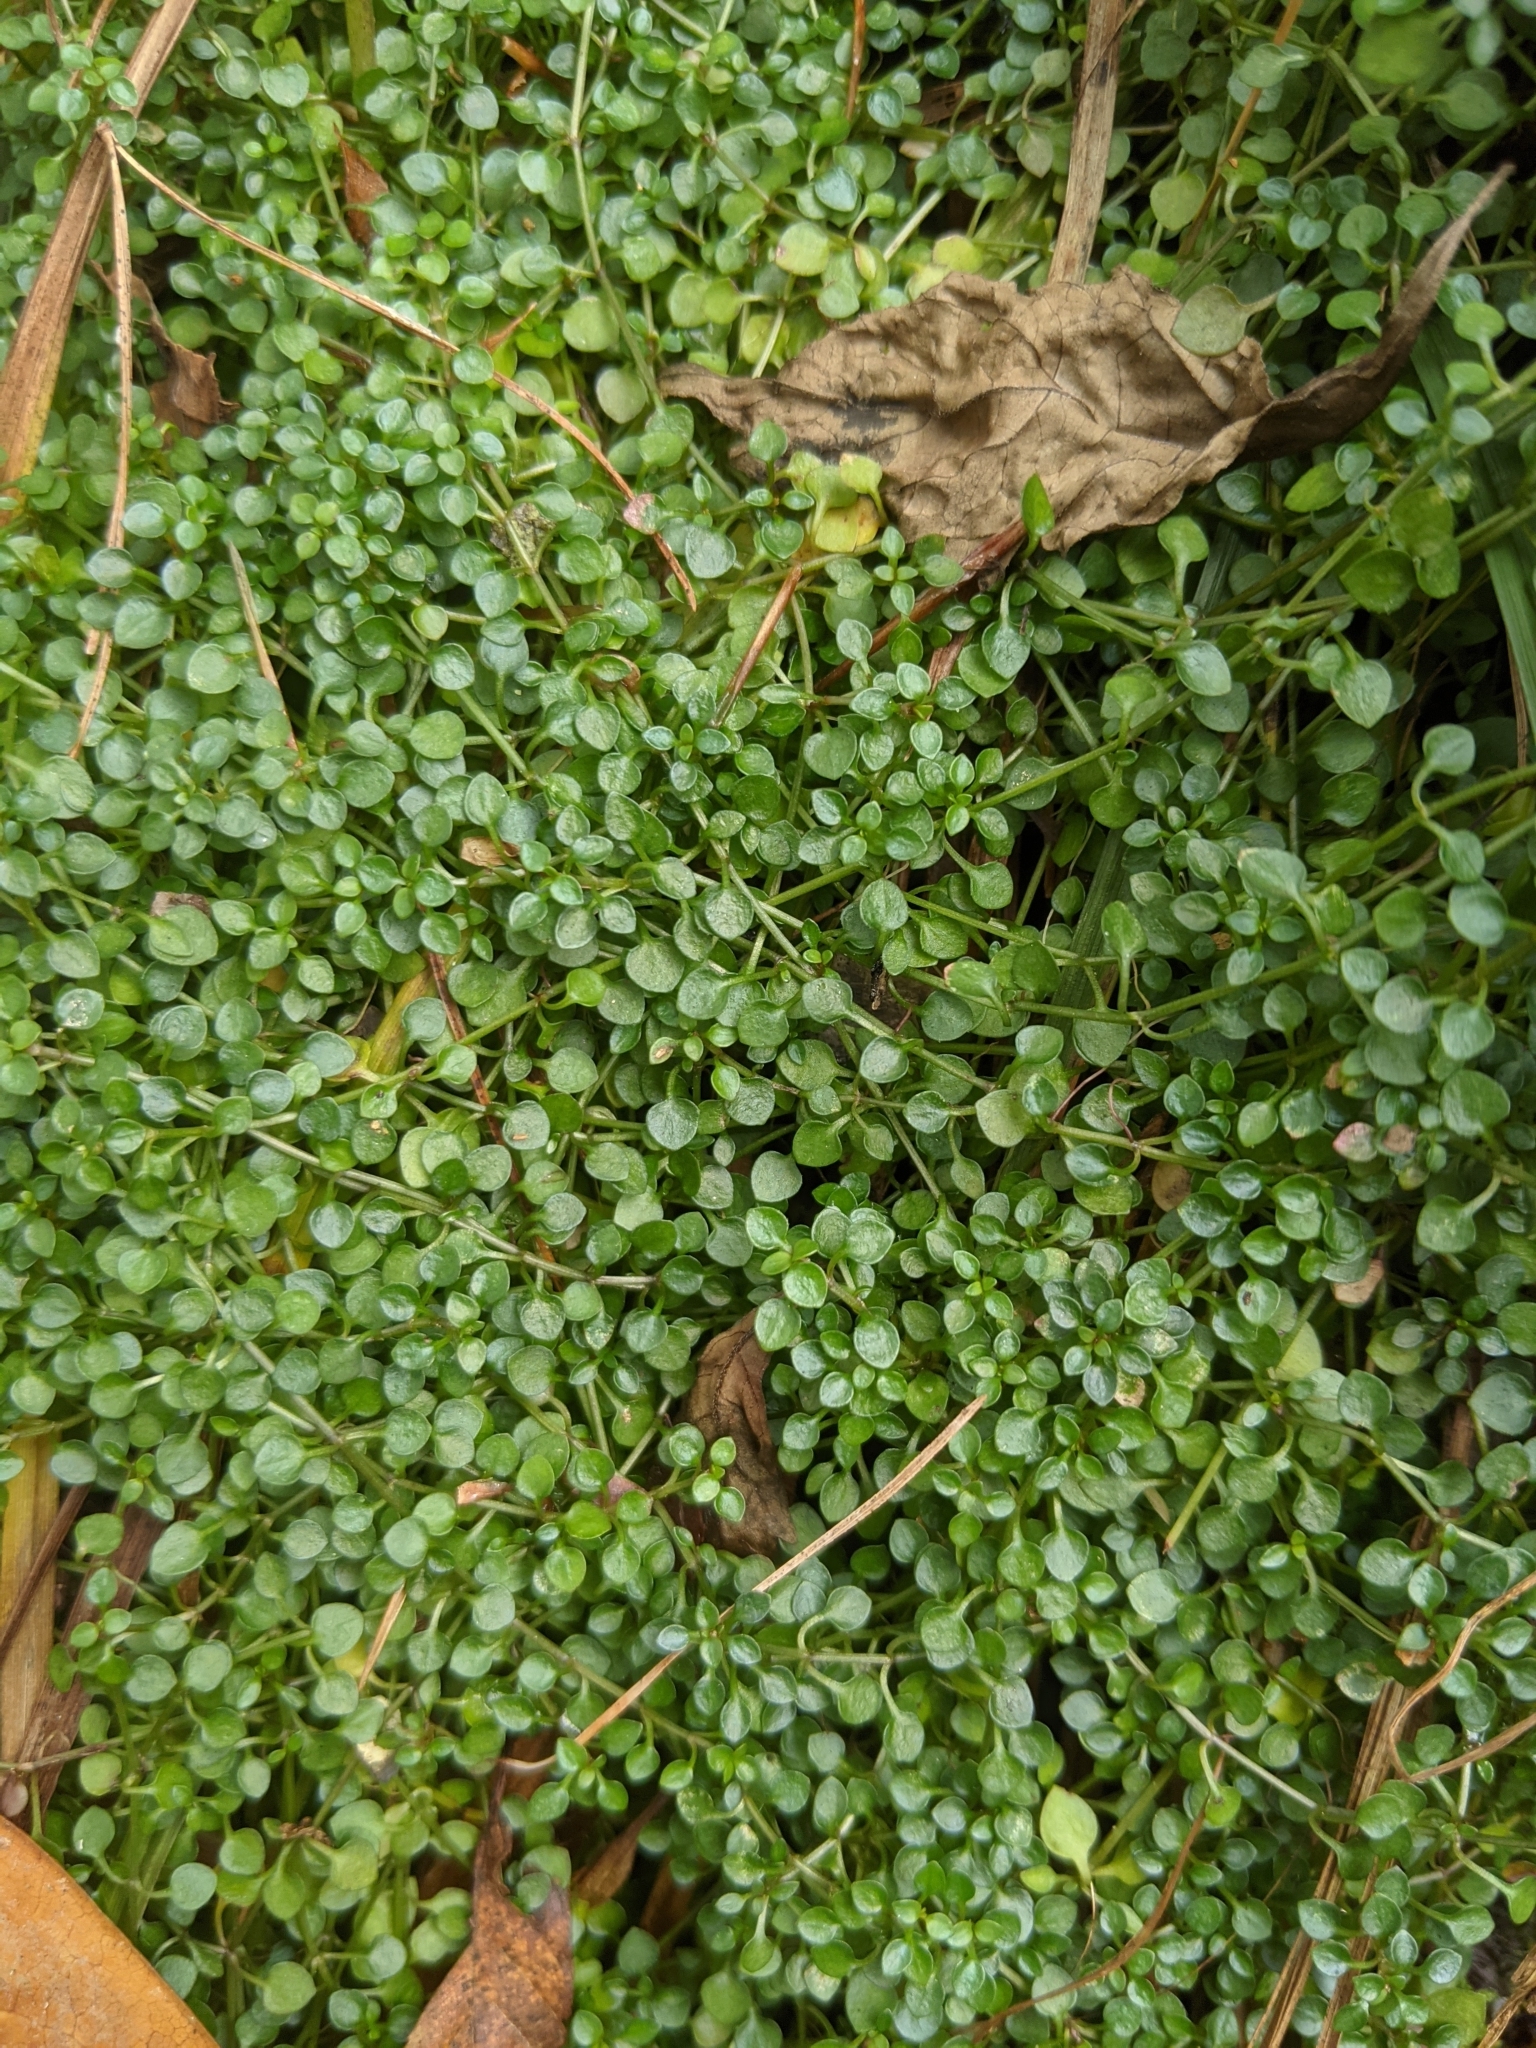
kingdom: Plantae
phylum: Tracheophyta
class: Magnoliopsida
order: Gentianales
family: Rubiaceae
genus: Houstonia
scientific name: Houstonia serpyllifolia
